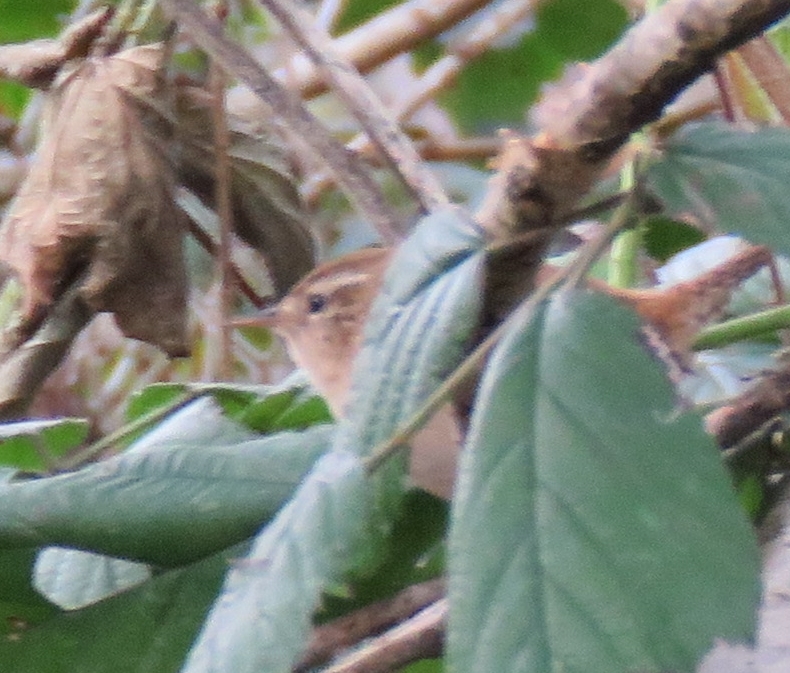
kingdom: Animalia
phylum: Chordata
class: Aves
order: Passeriformes
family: Troglodytidae
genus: Troglodytes
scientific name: Troglodytes troglodytes
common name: Eurasian wren
